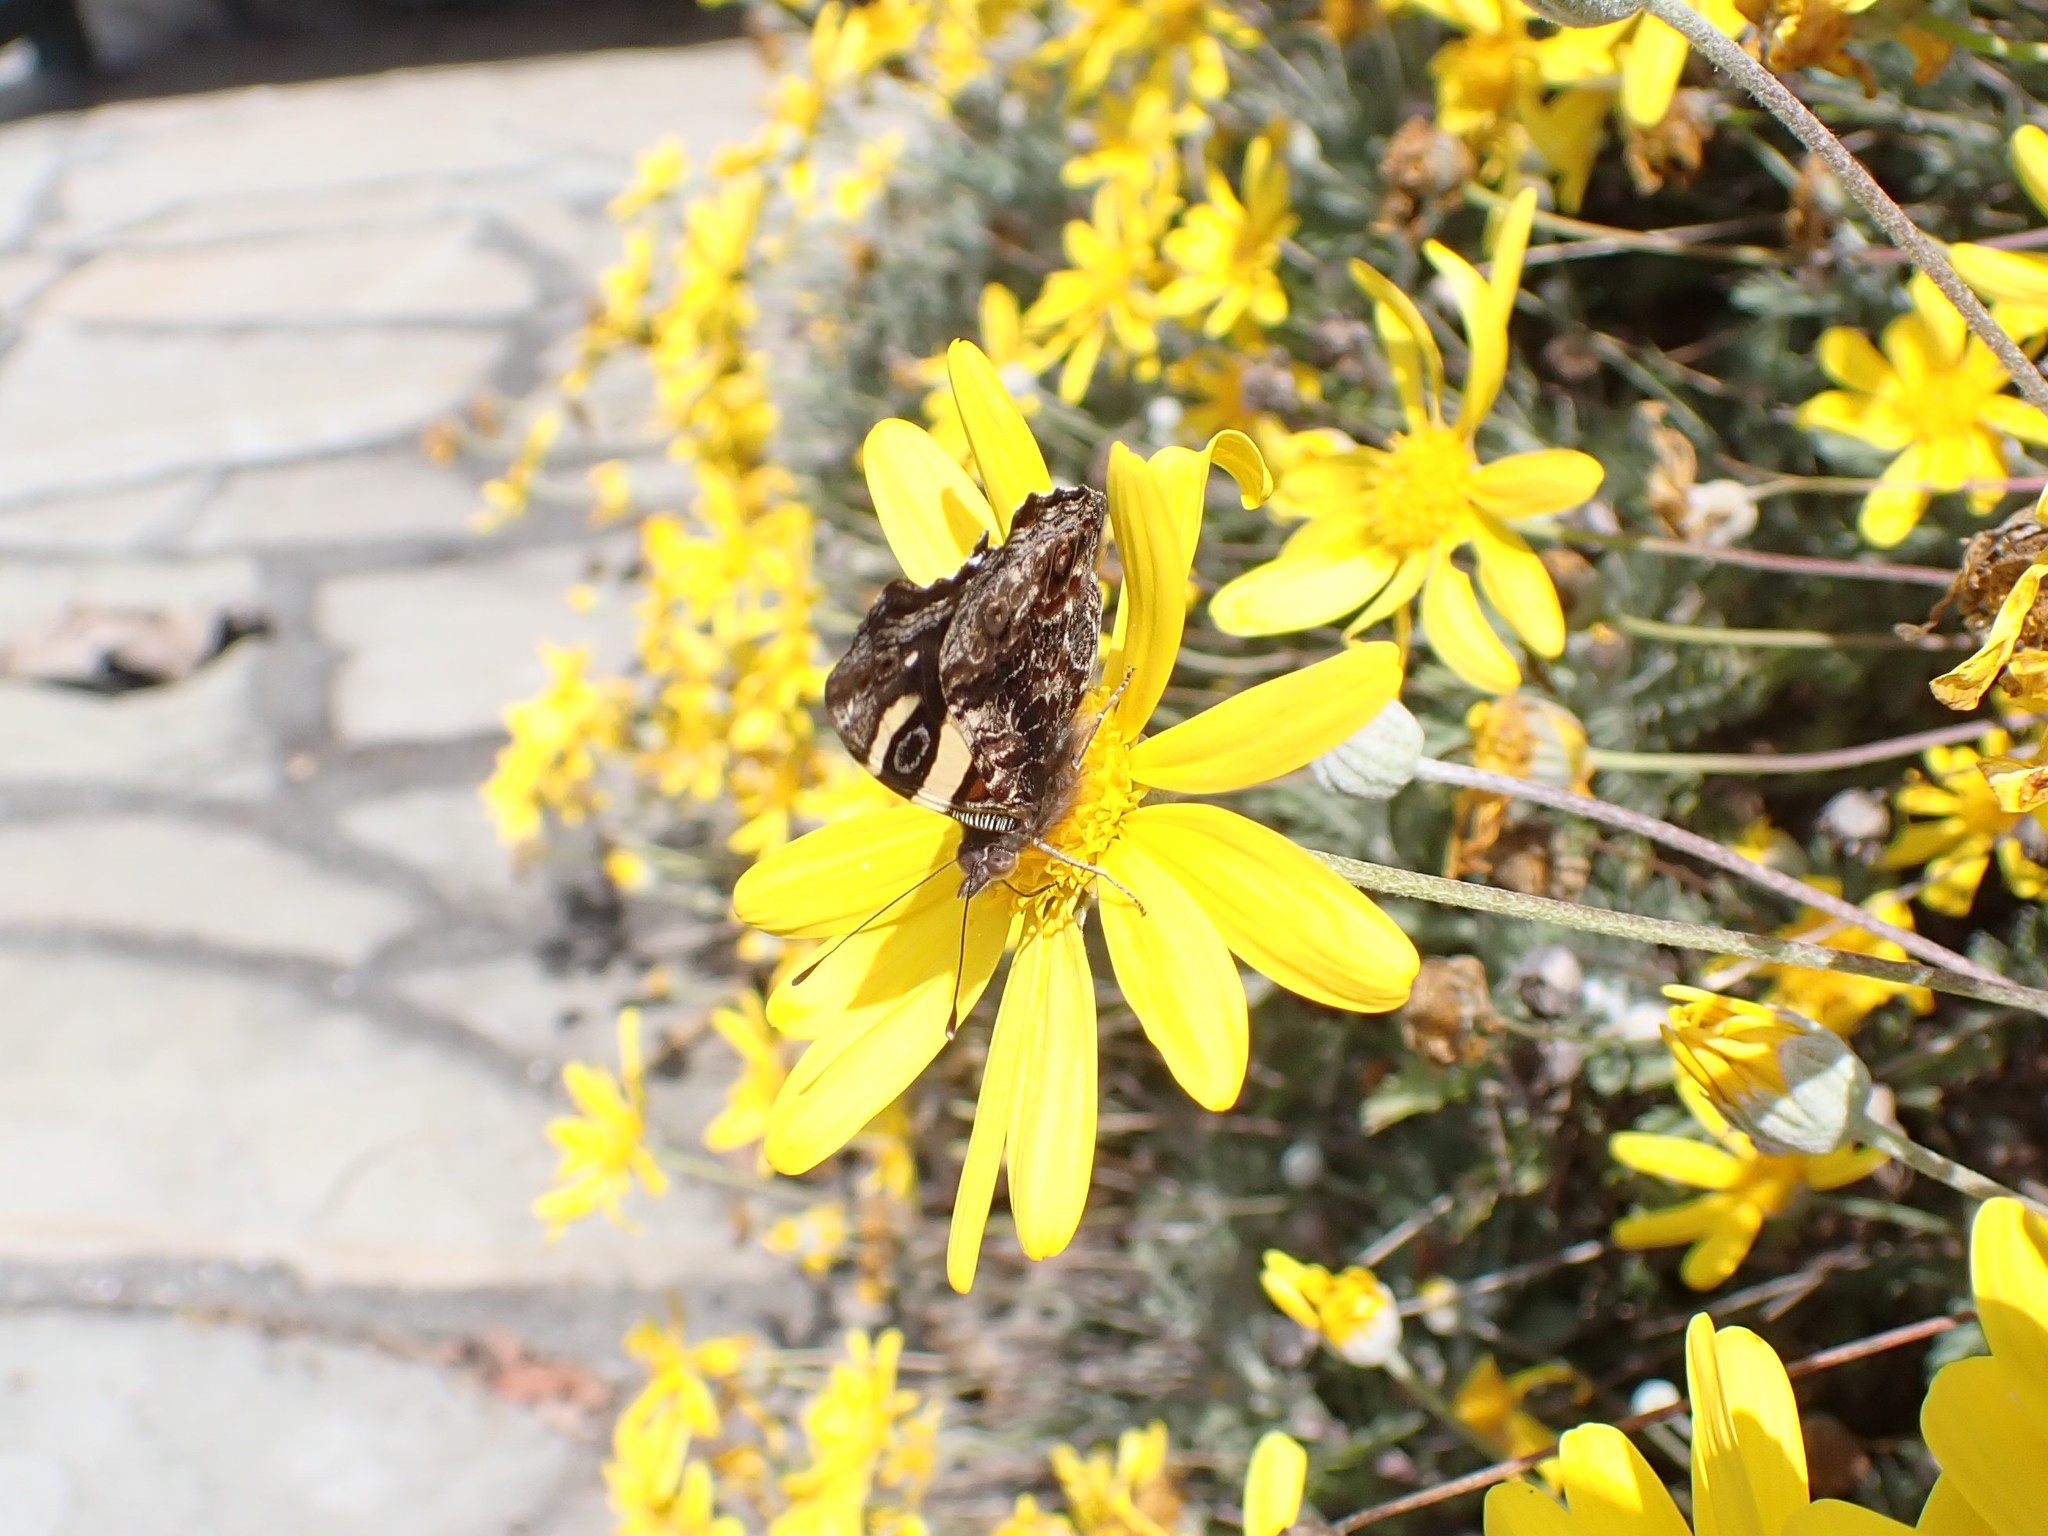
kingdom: Animalia
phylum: Arthropoda
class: Insecta
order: Lepidoptera
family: Nymphalidae
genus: Vanessa
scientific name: Vanessa itea
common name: Yellow admiral
